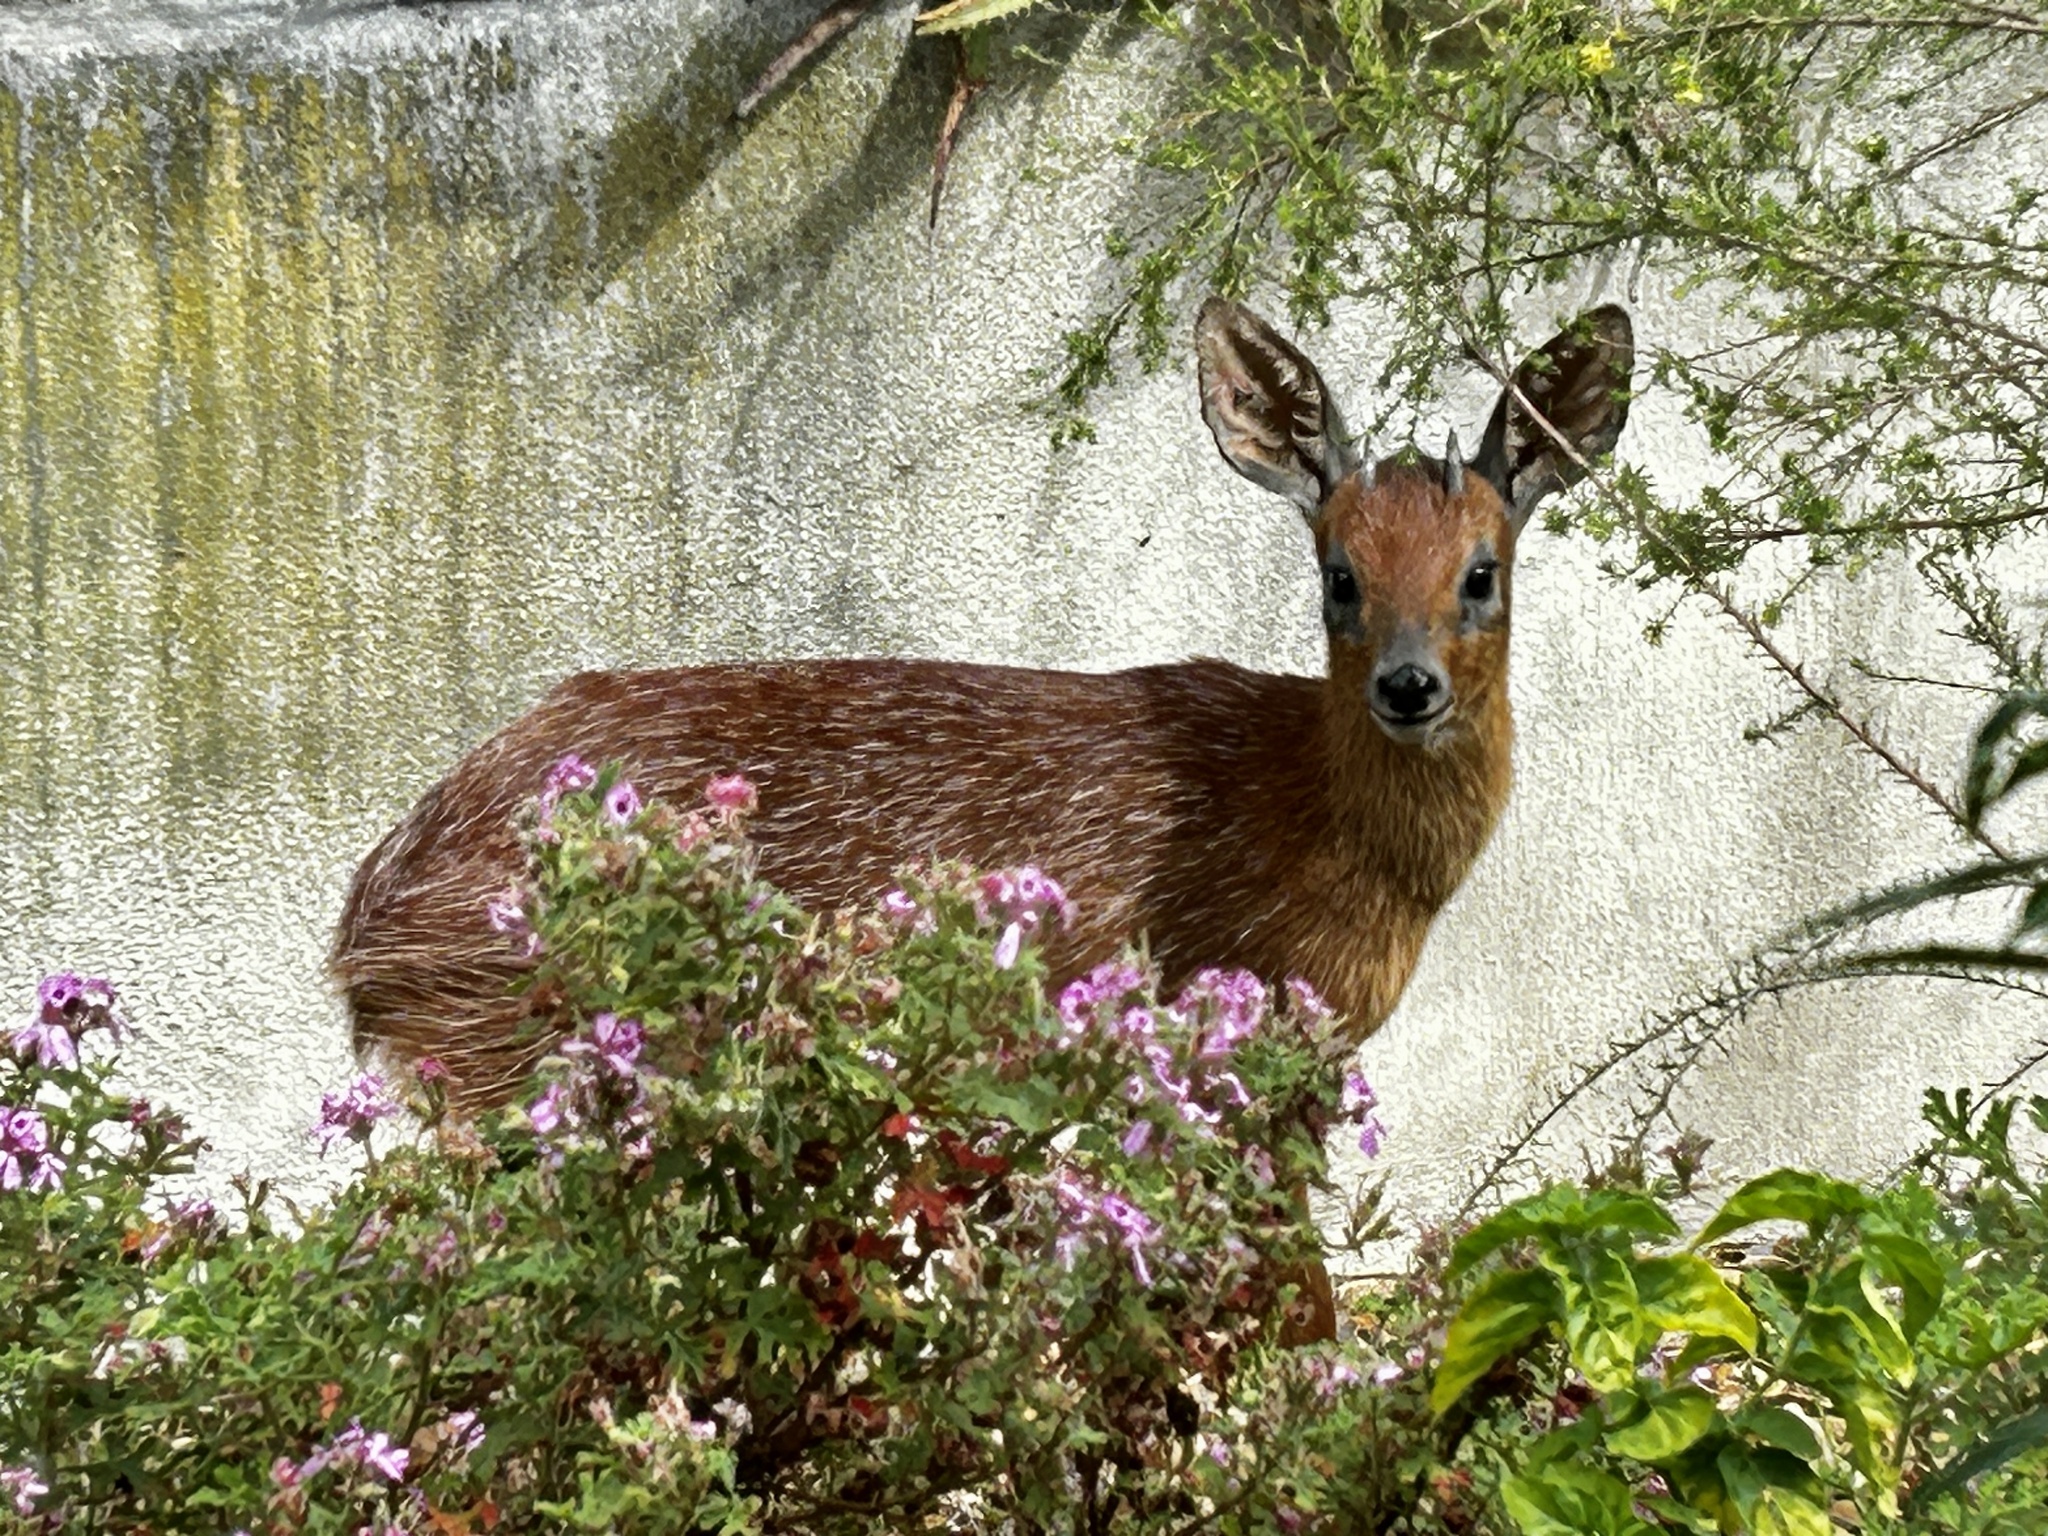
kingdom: Animalia
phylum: Chordata
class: Mammalia
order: Artiodactyla
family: Bovidae
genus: Raphicerus
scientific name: Raphicerus melanotis
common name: Cape grysbok
